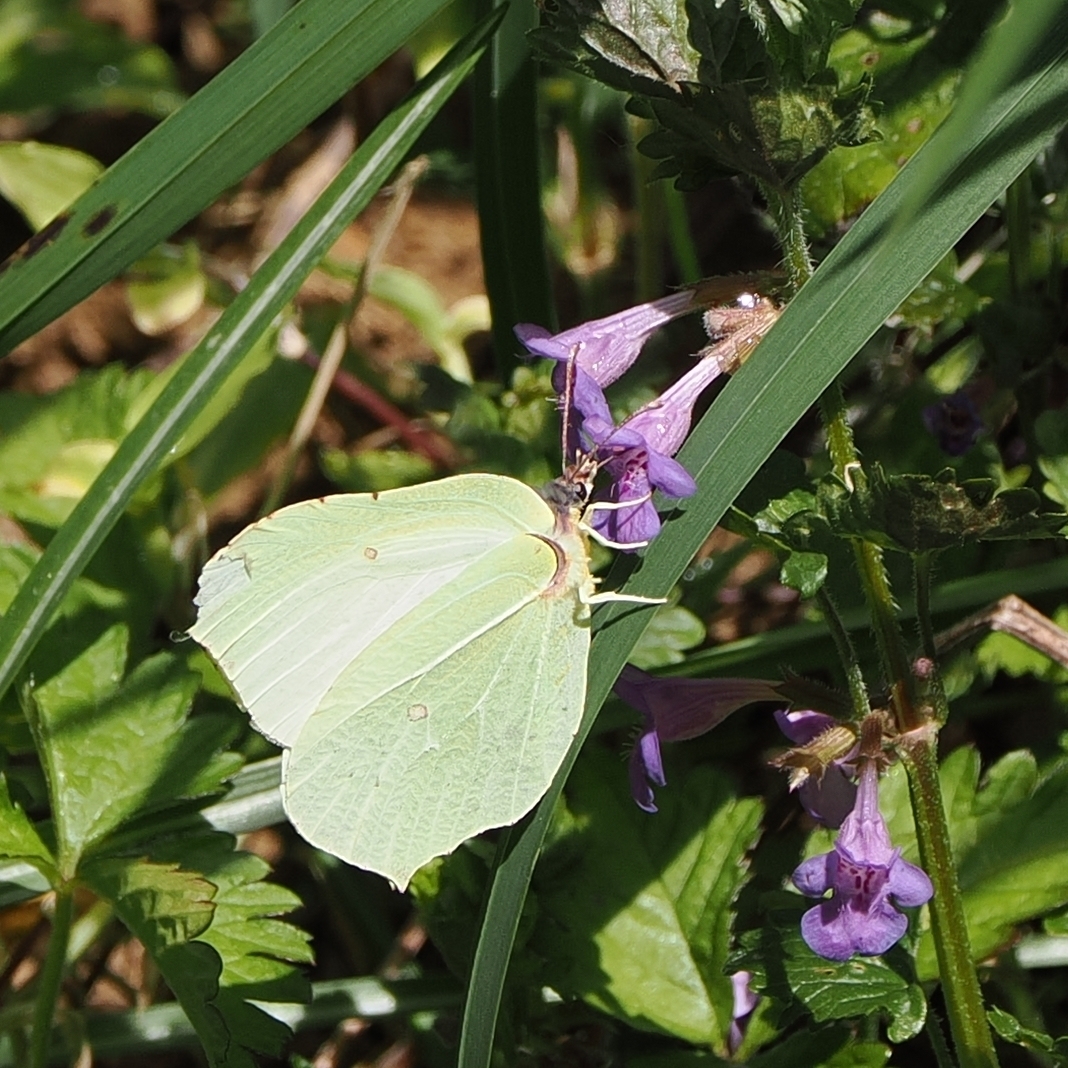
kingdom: Animalia
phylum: Arthropoda
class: Insecta
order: Lepidoptera
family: Pieridae
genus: Gonepteryx
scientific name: Gonepteryx rhamni
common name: Brimstone
